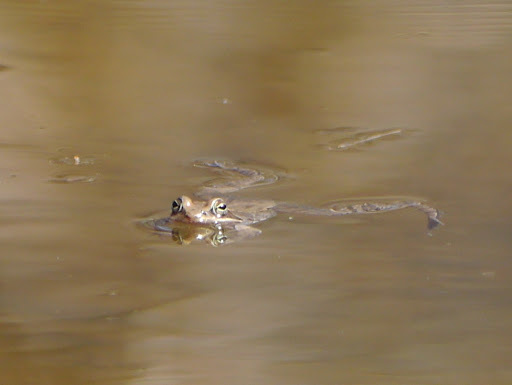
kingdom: Animalia
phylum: Chordata
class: Amphibia
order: Anura
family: Ranidae
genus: Lithobates
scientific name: Lithobates sylvaticus
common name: Wood frog
